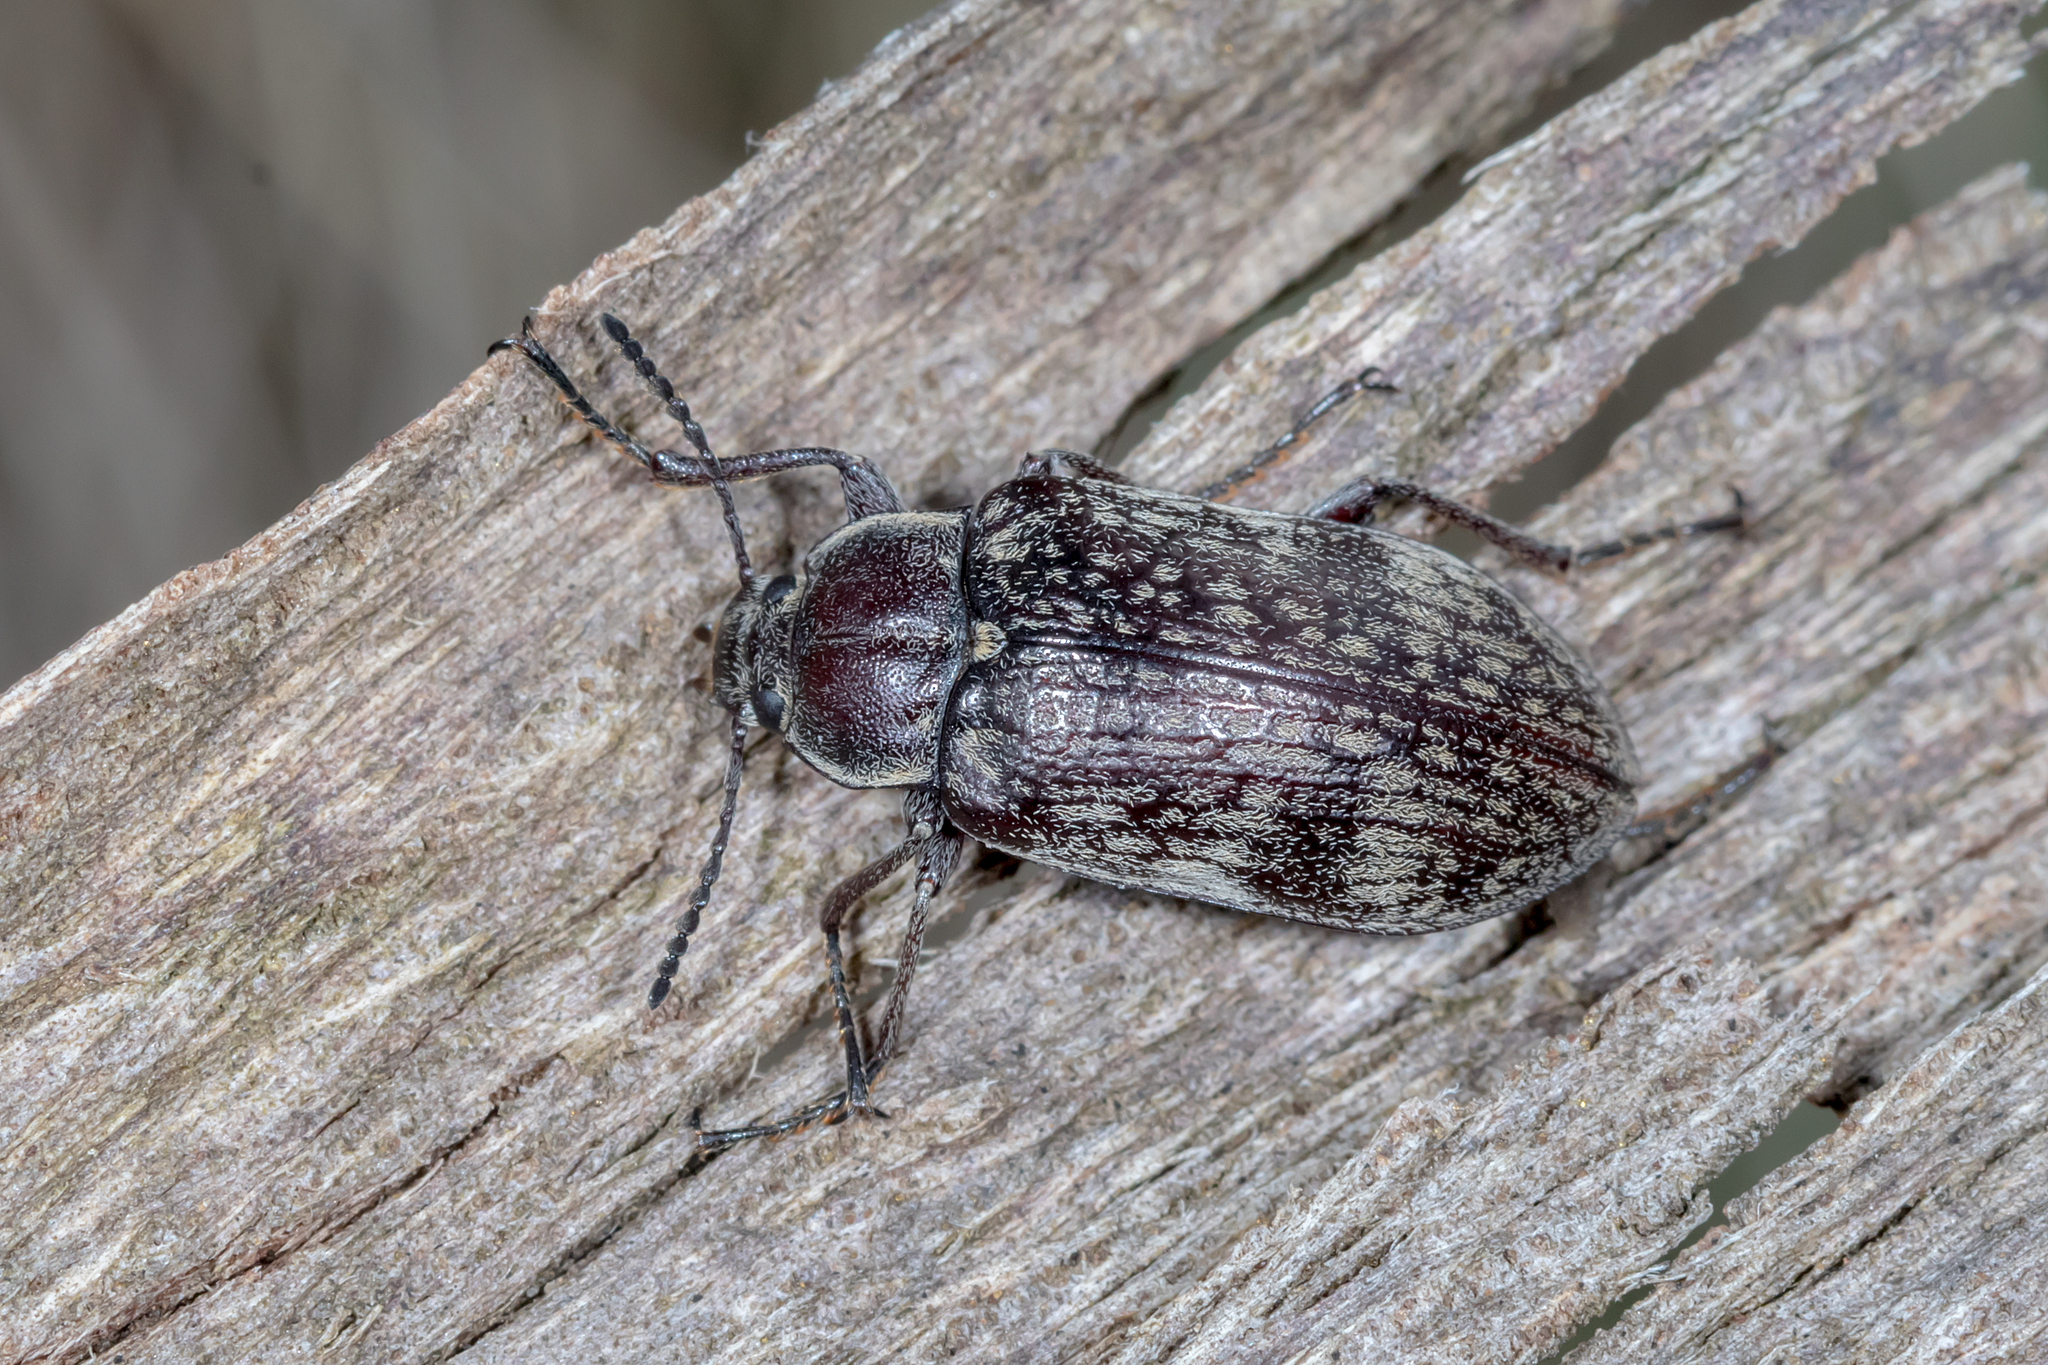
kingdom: Animalia
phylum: Arthropoda
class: Insecta
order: Coleoptera
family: Tenebrionidae
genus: Pachycoelia
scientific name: Pachycoelia
